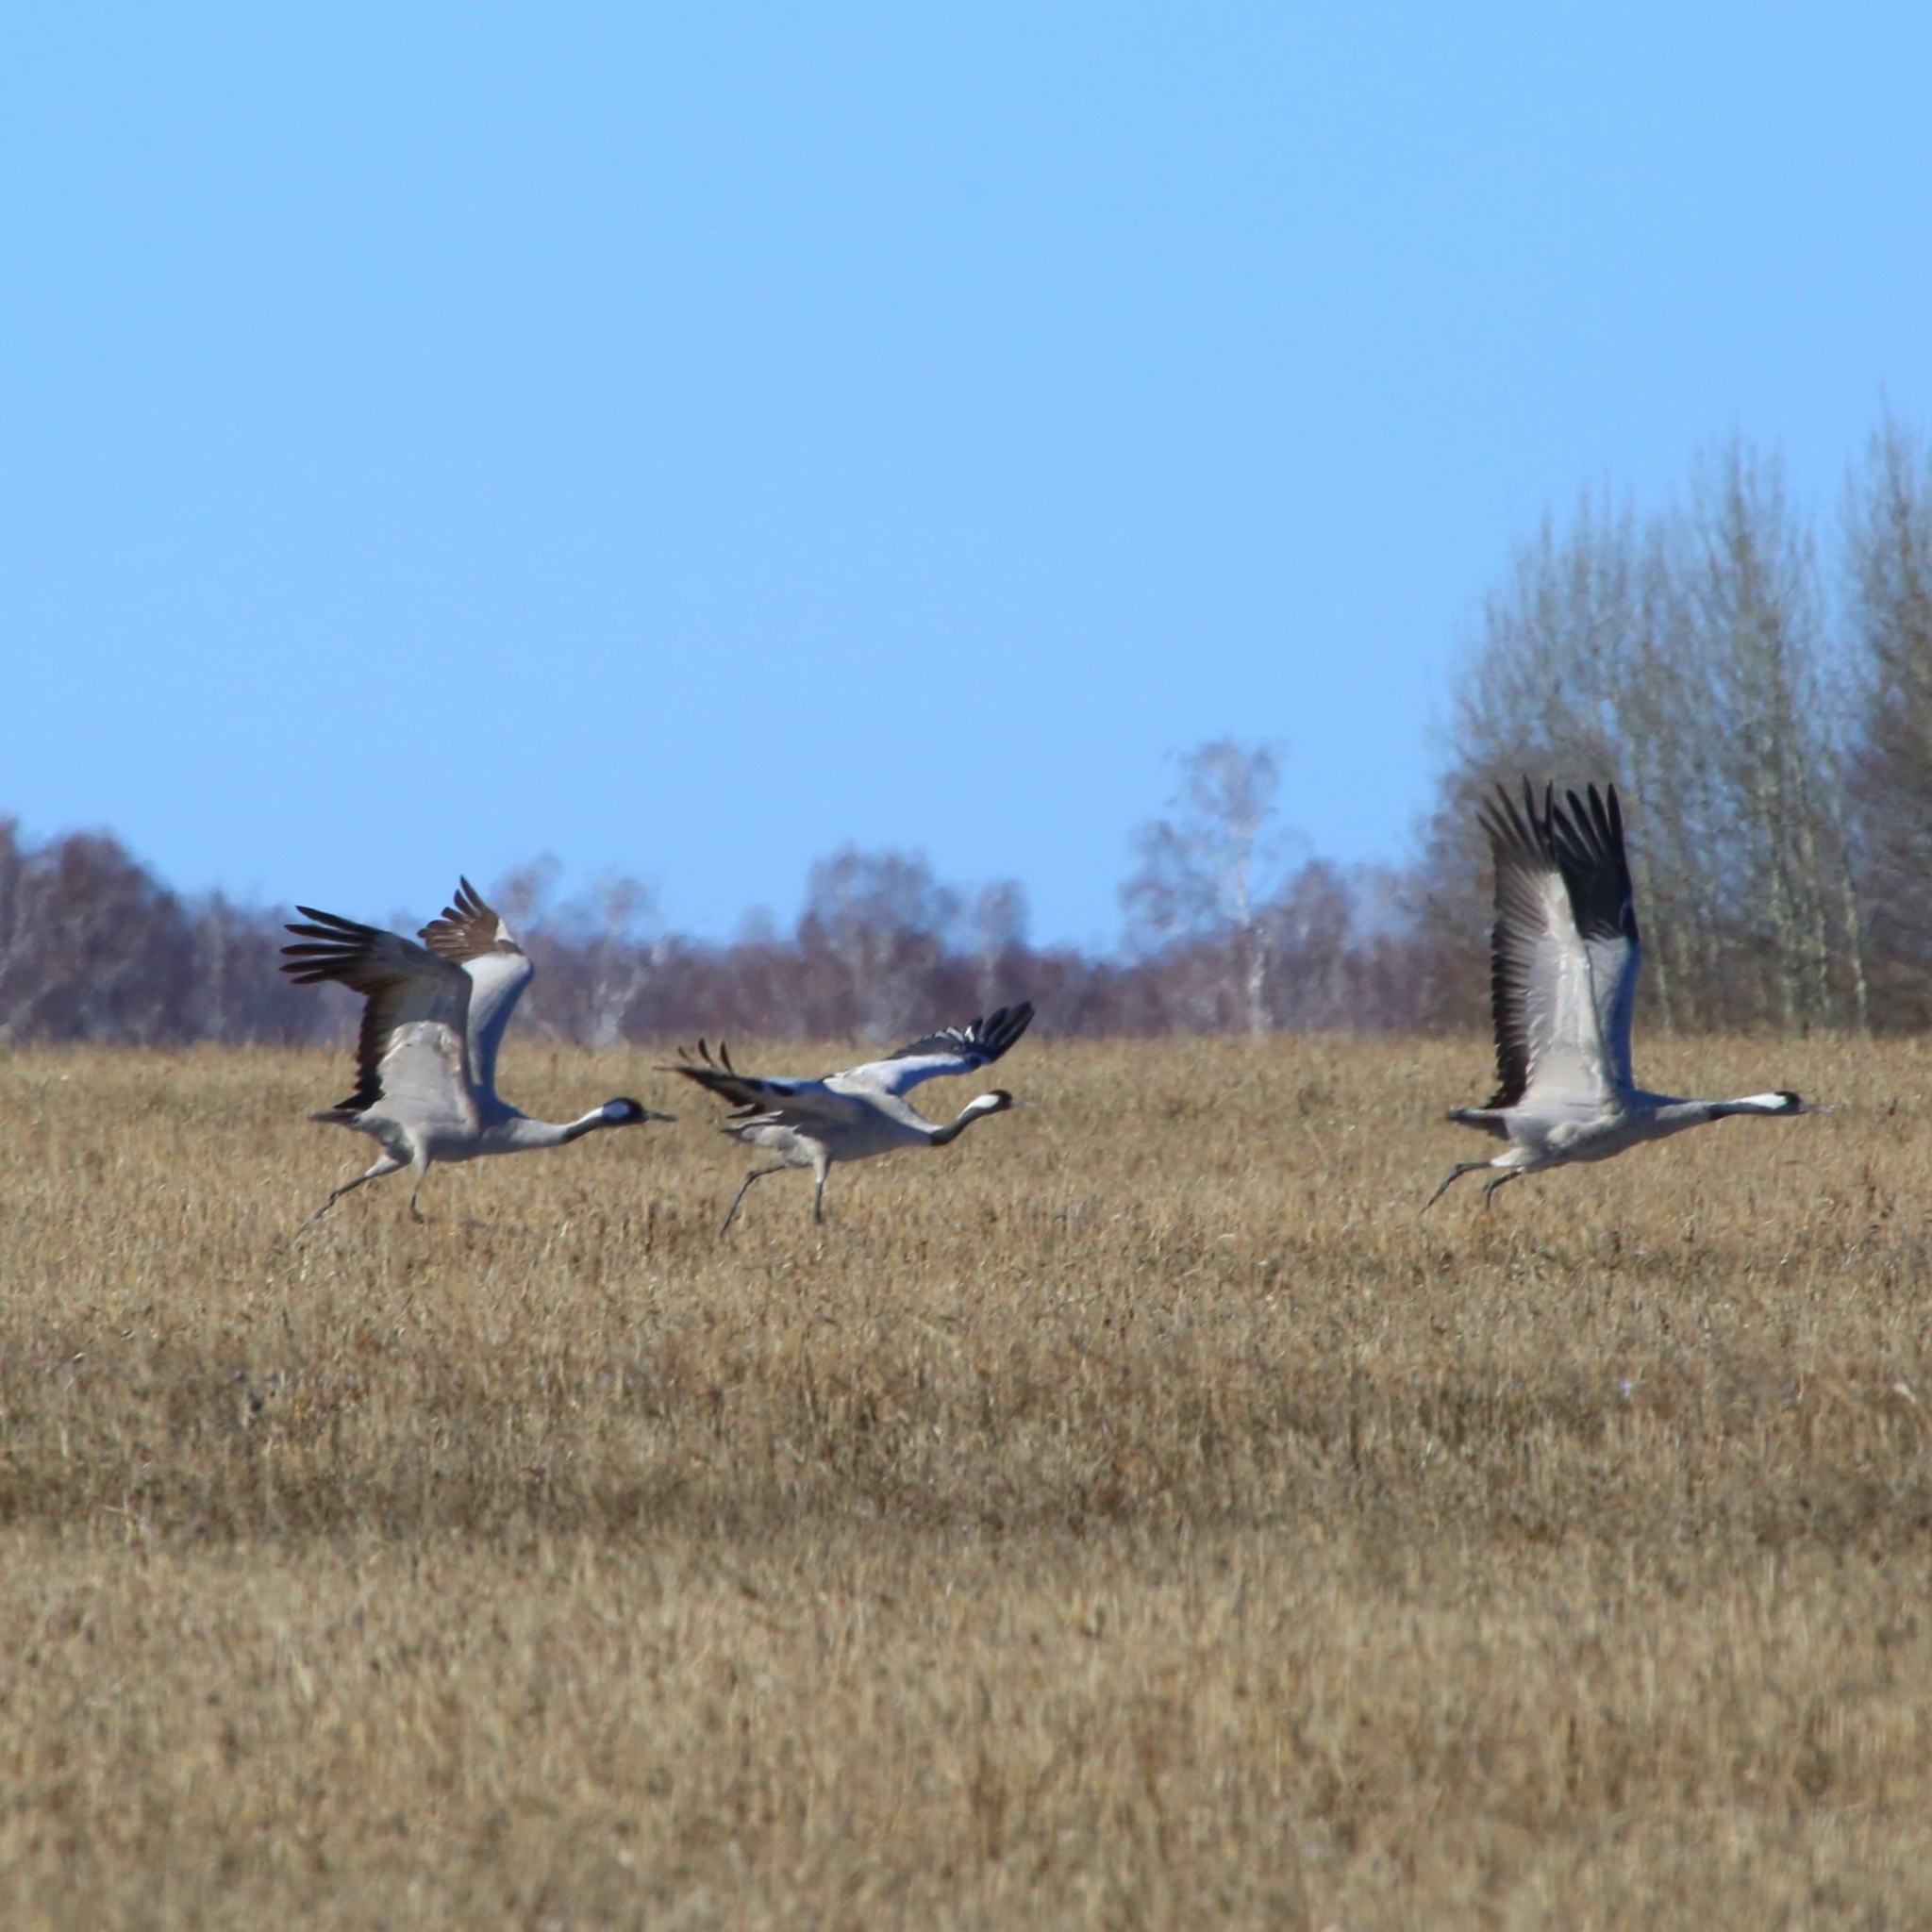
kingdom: Animalia
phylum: Chordata
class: Aves
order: Gruiformes
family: Gruidae
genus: Grus
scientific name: Grus grus
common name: Common crane
